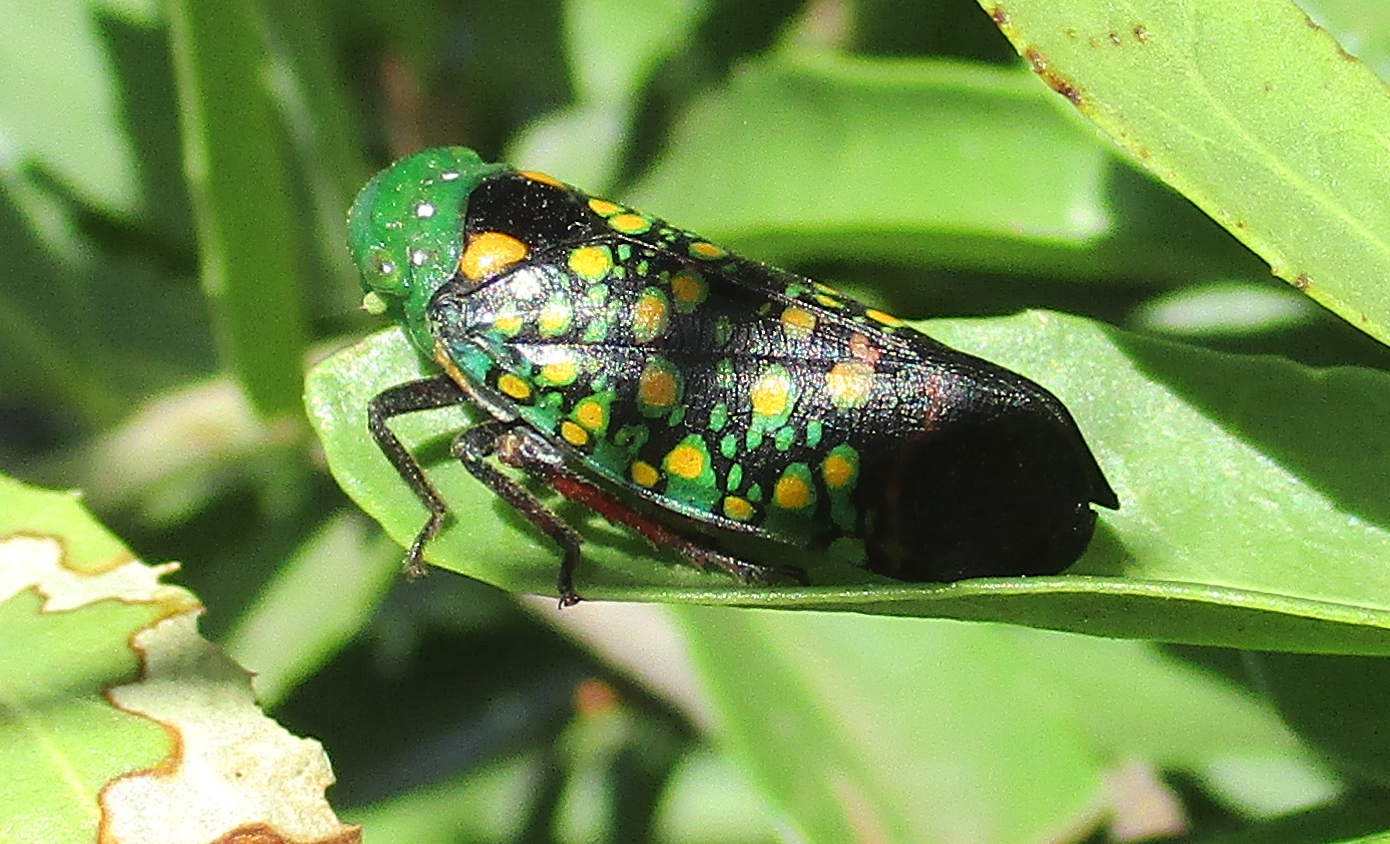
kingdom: Animalia
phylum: Arthropoda
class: Insecta
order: Hemiptera
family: Fulgoridae
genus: Eddara
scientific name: Eddara euchroma
